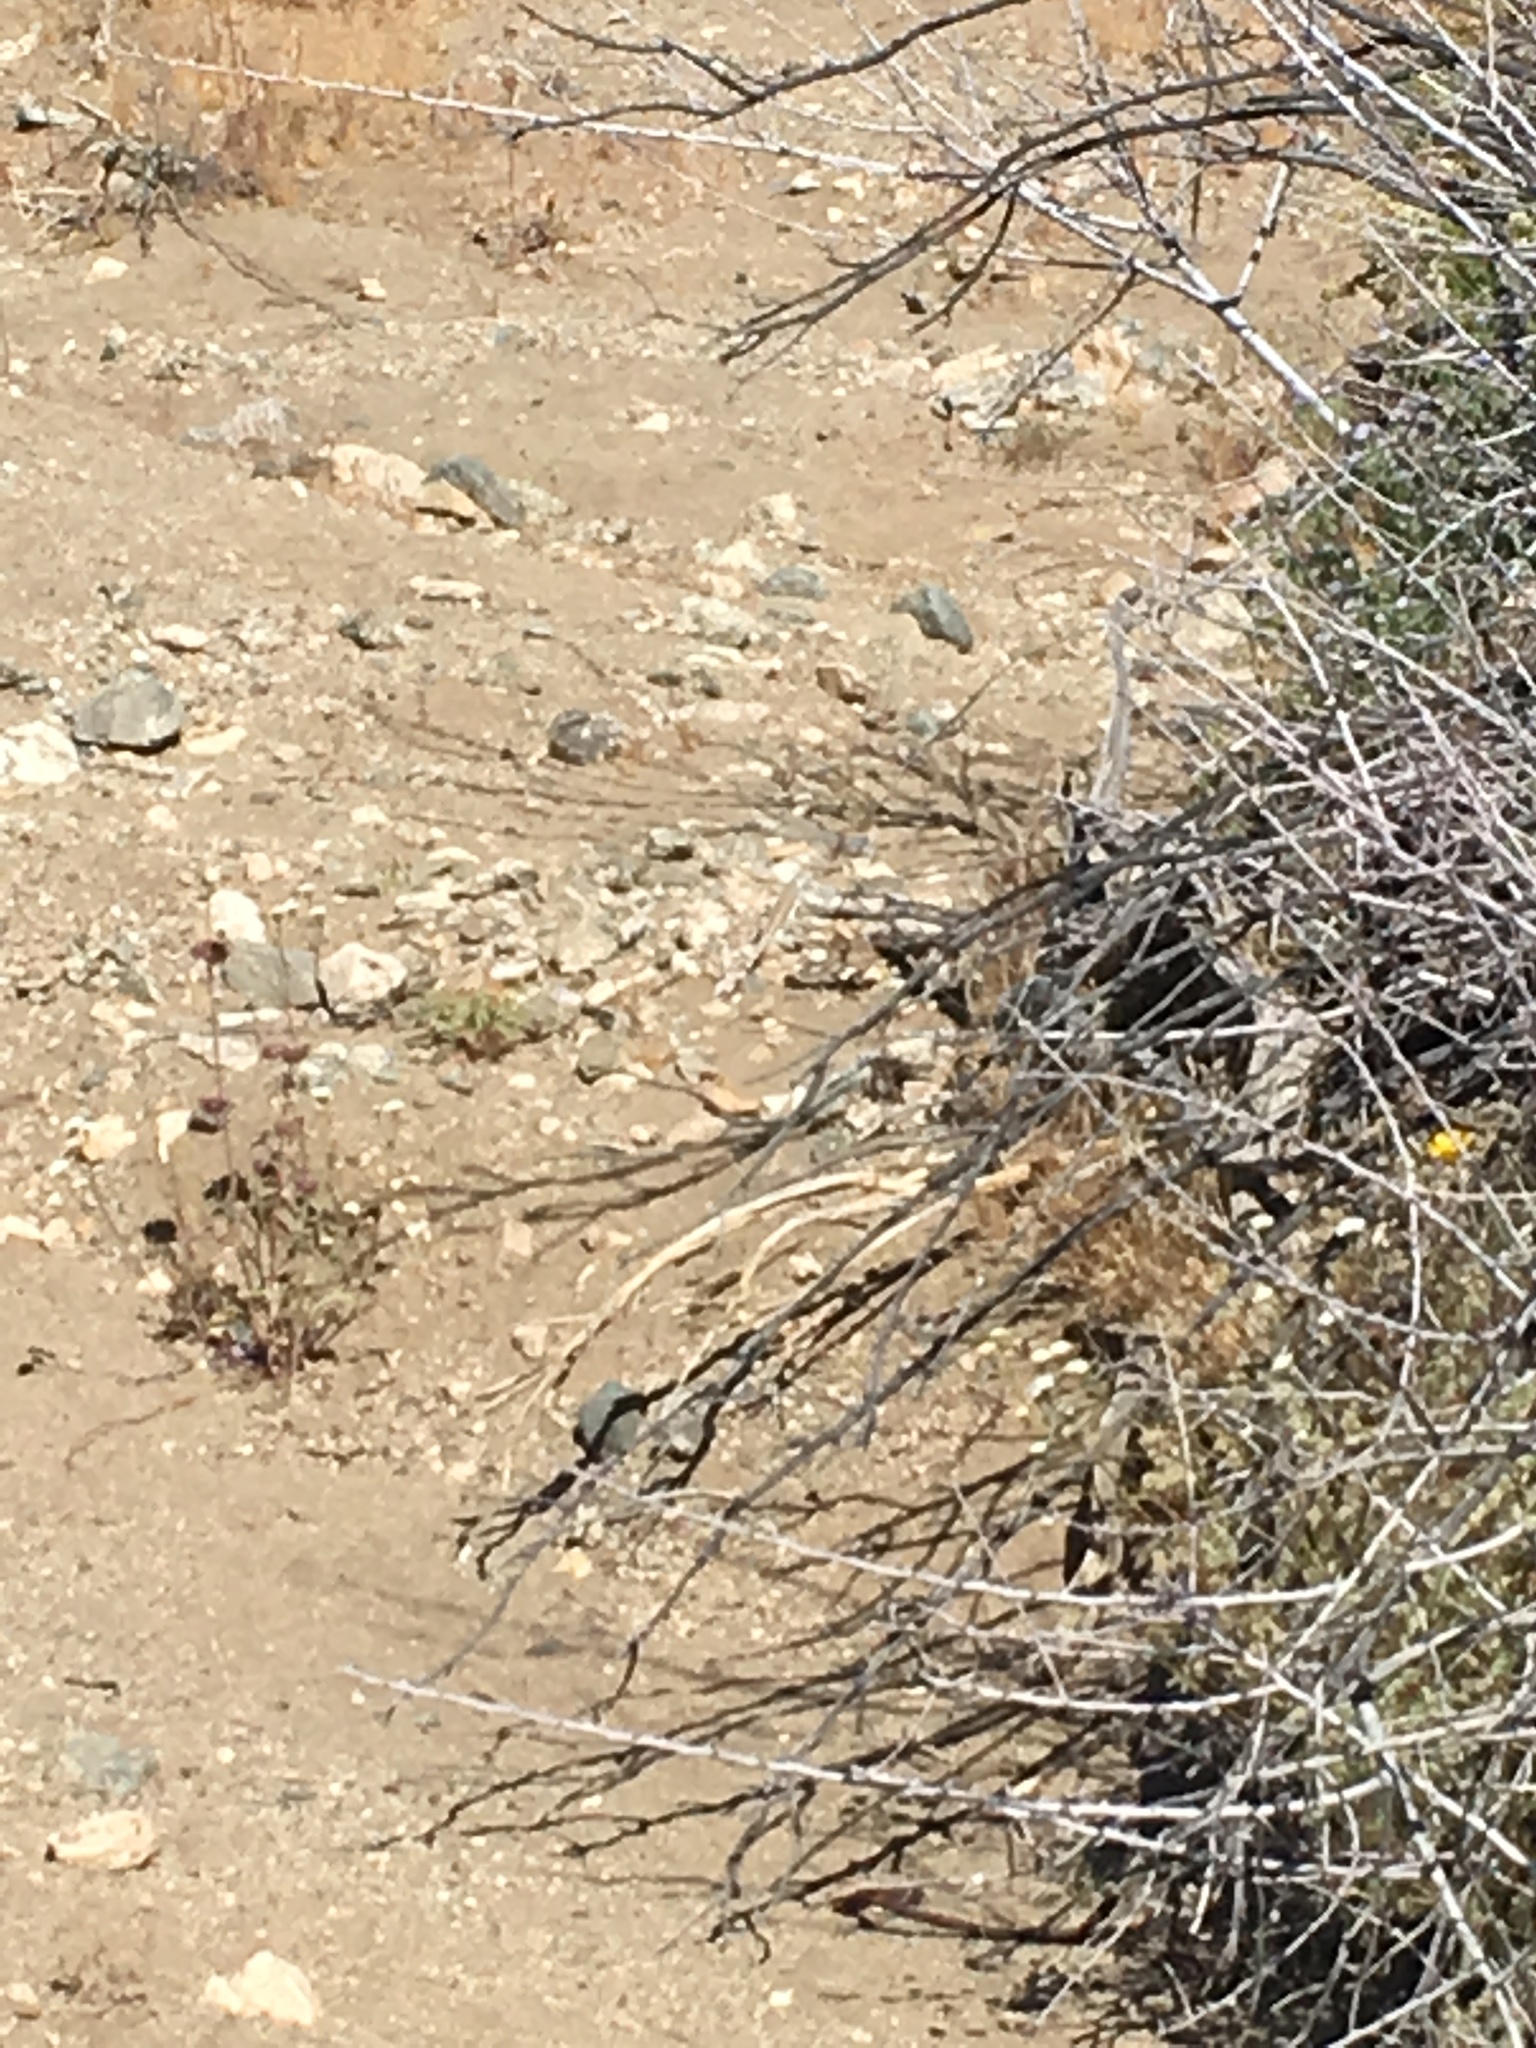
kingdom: Animalia
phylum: Chordata
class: Squamata
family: Phrynosomatidae
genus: Callisaurus
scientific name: Callisaurus draconoides
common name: Zebra-tailed lizard
